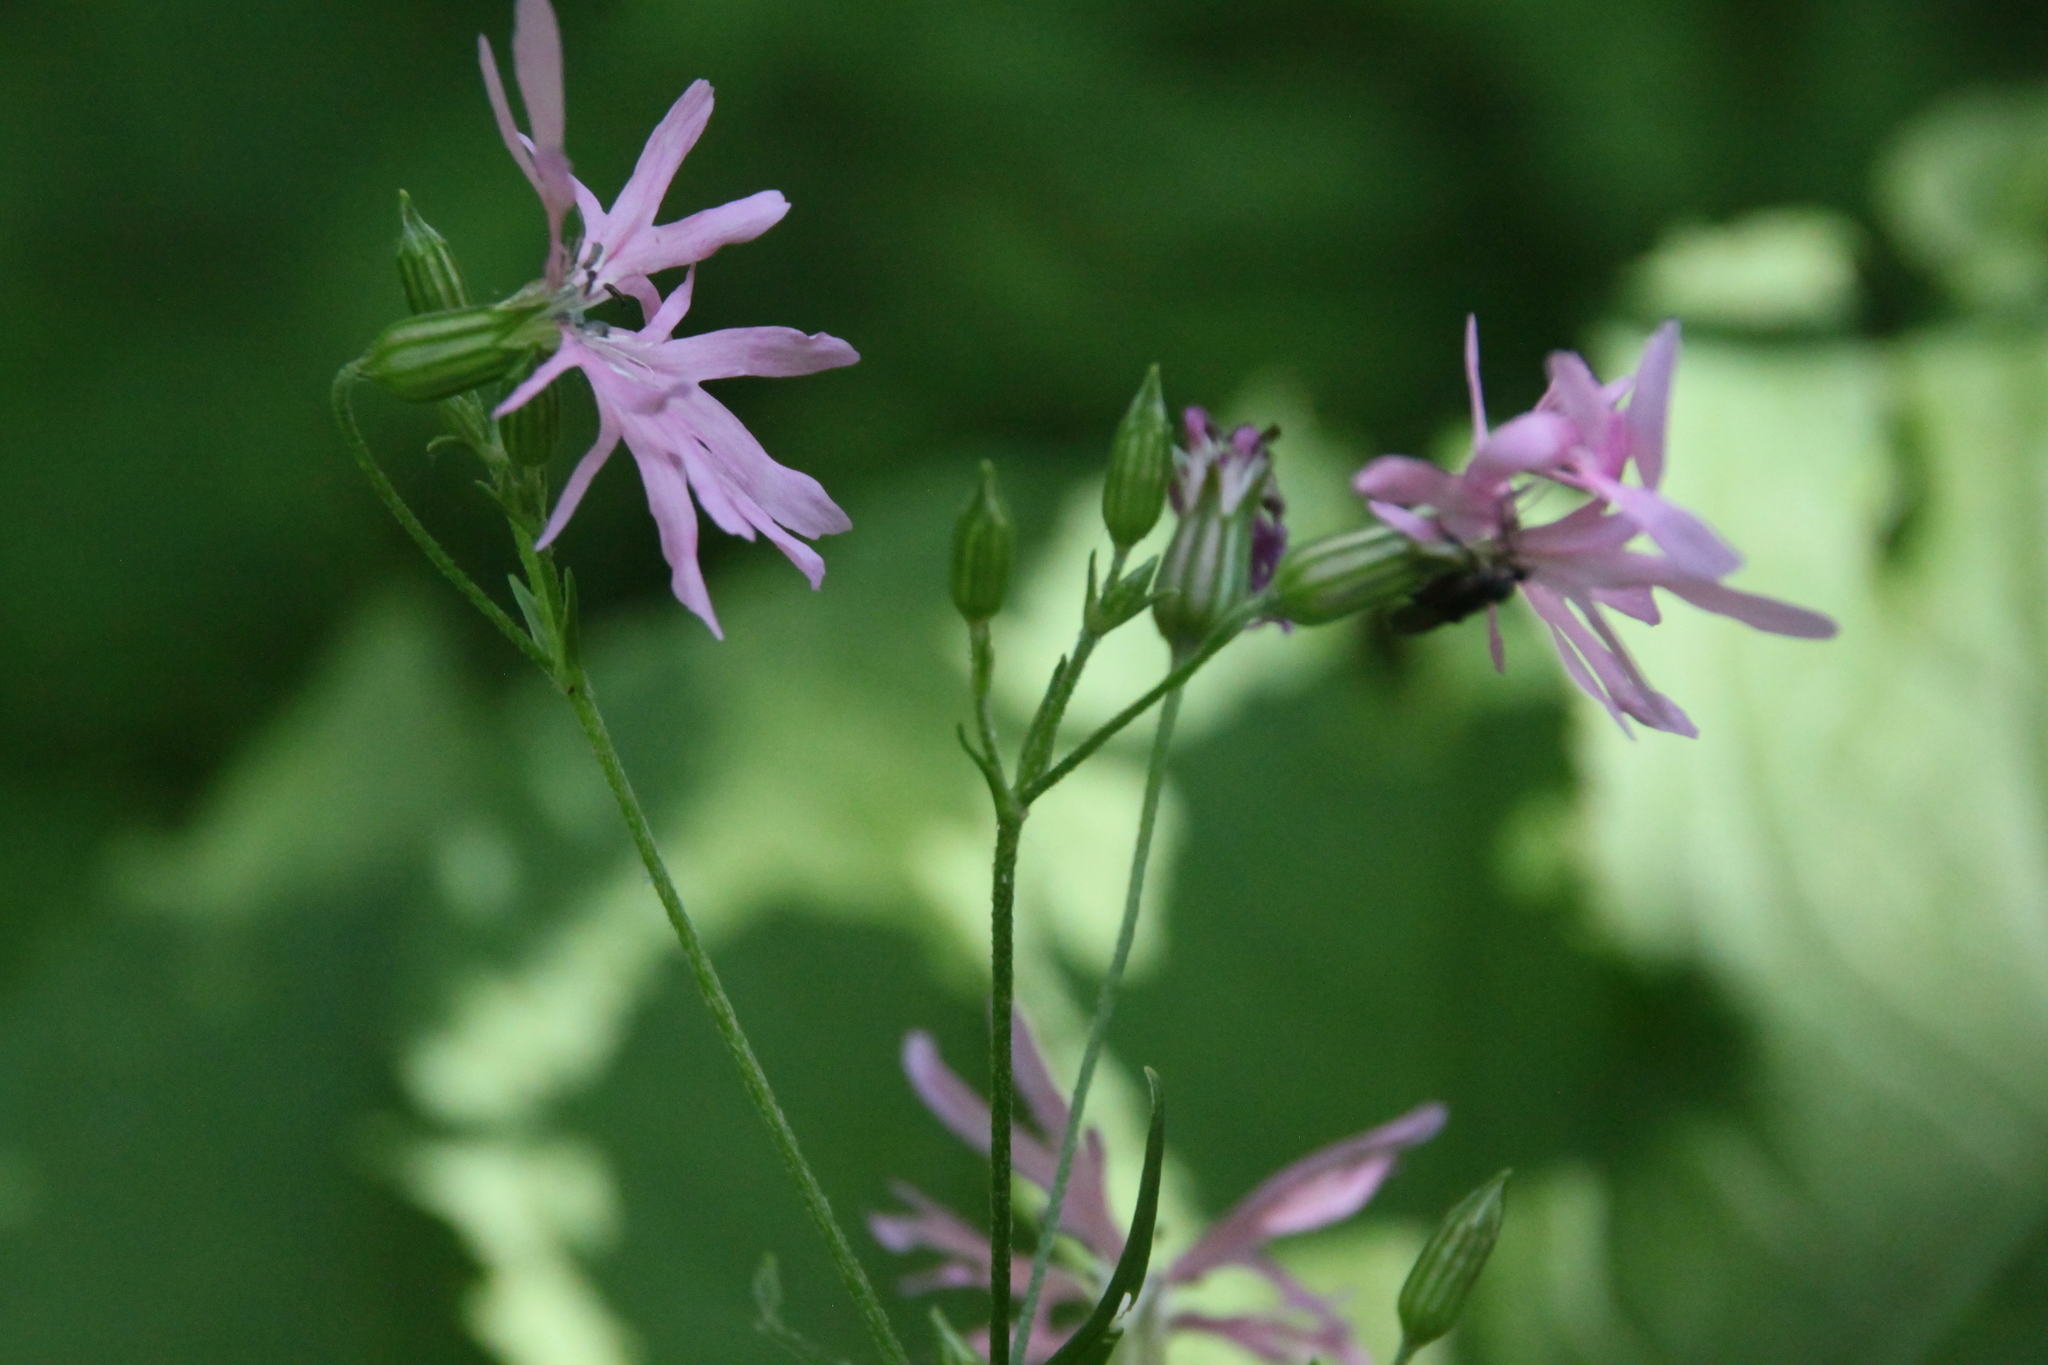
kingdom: Plantae
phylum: Tracheophyta
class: Magnoliopsida
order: Caryophyllales
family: Caryophyllaceae
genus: Silene
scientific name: Silene flos-cuculi
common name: Ragged-robin
